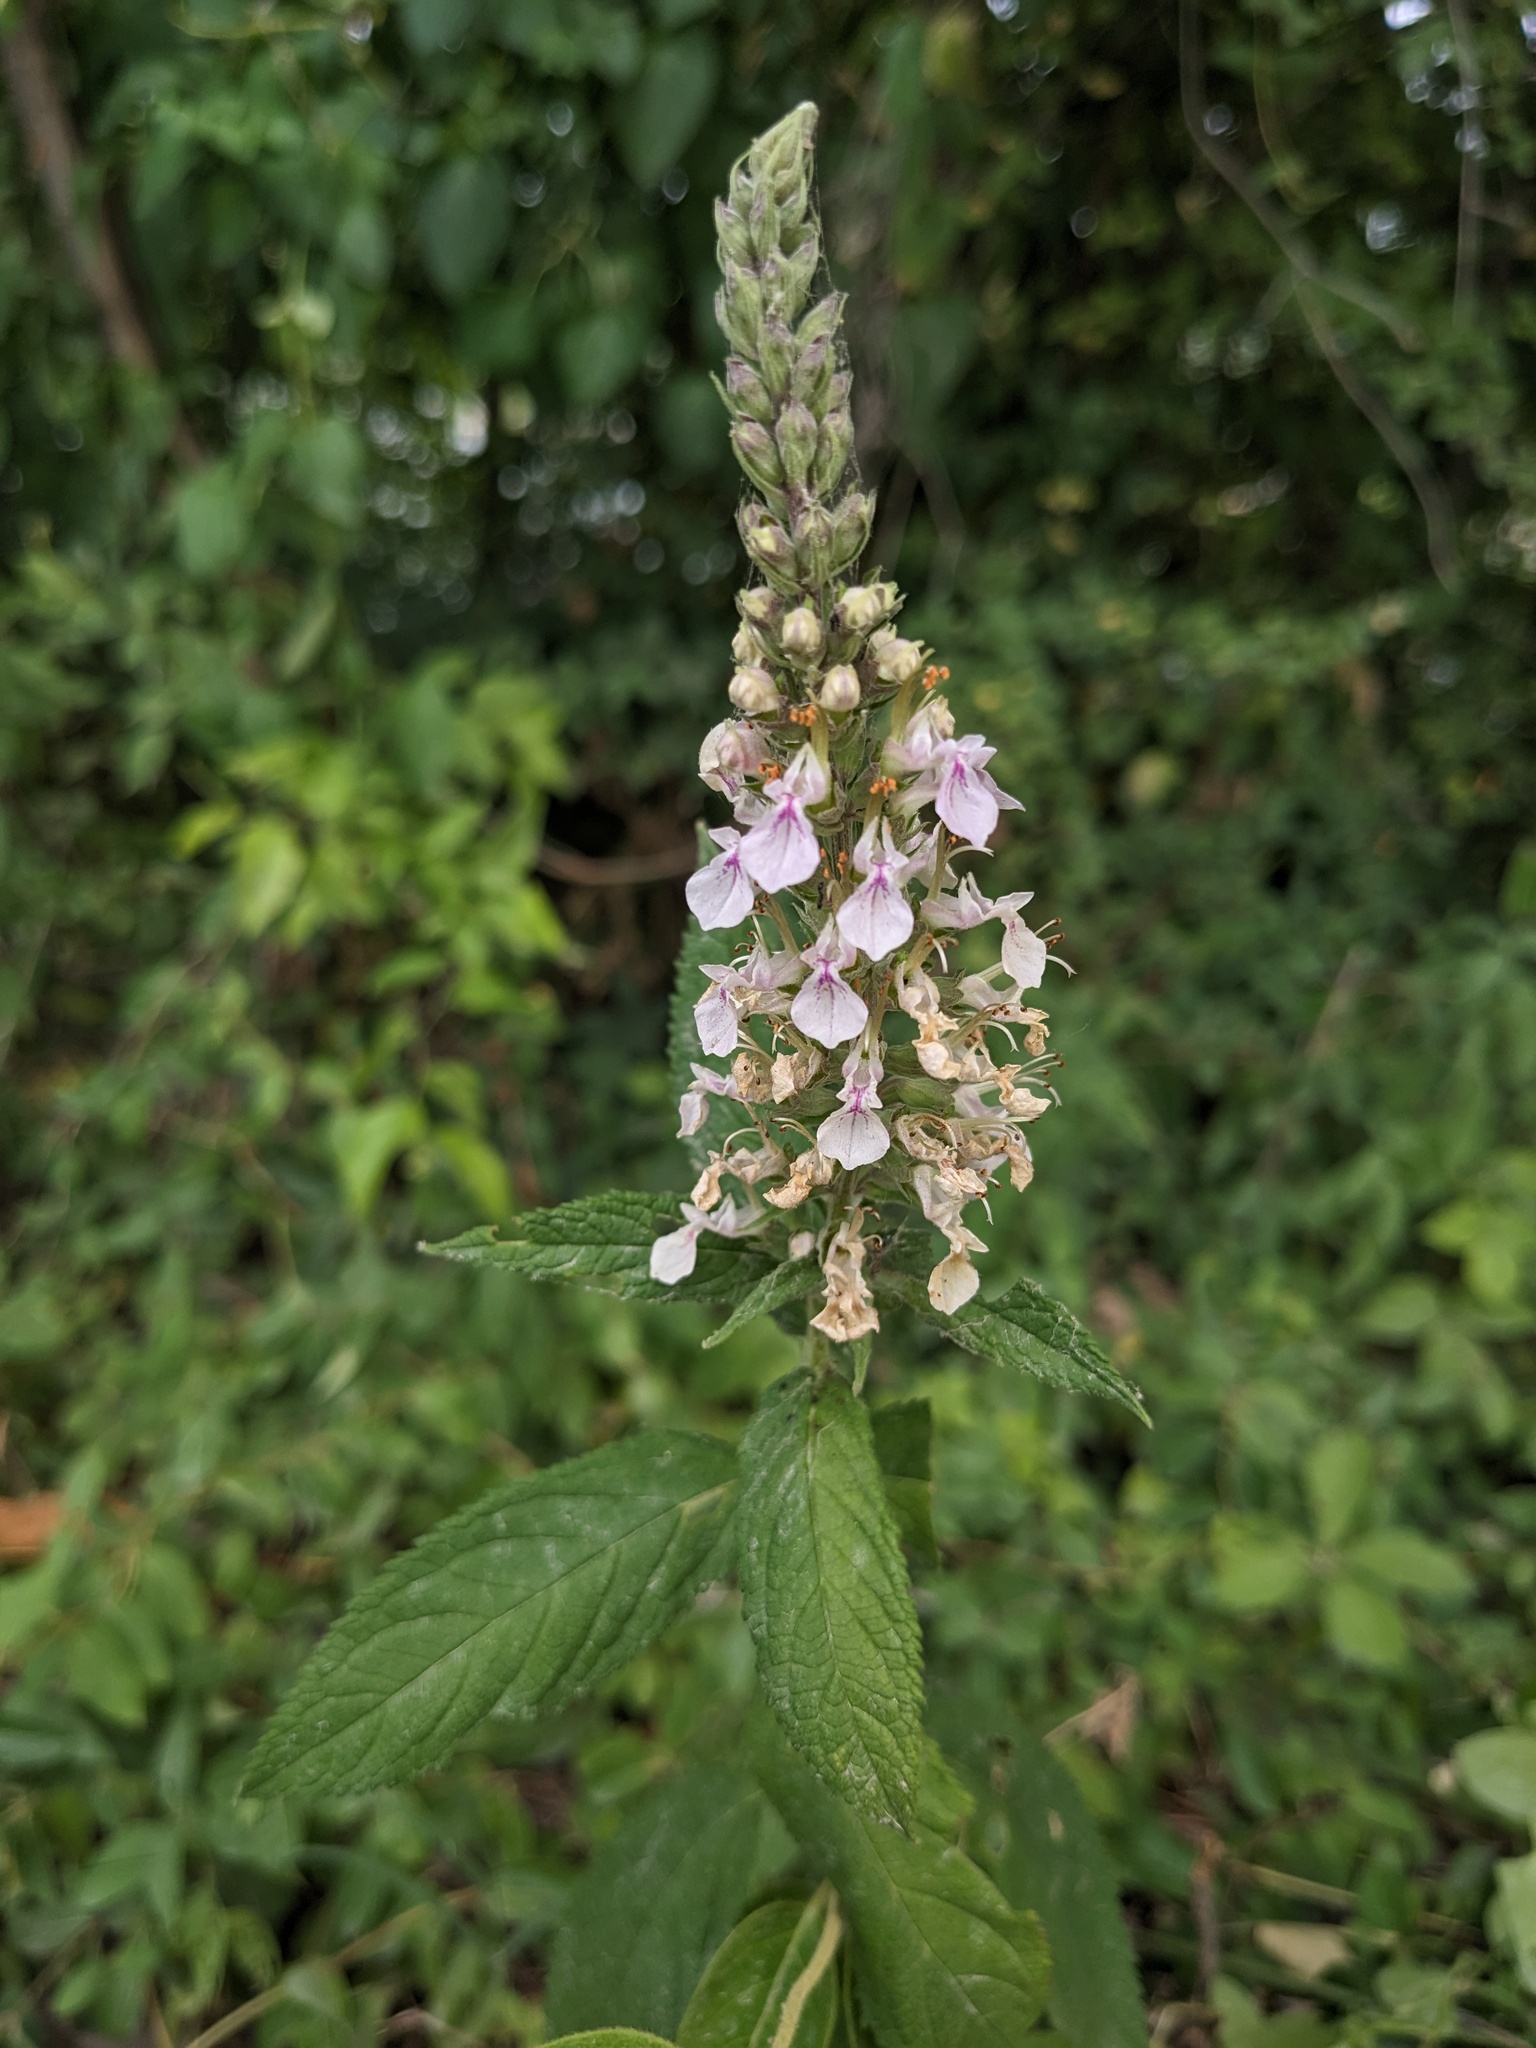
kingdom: Plantae
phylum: Tracheophyta
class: Magnoliopsida
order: Lamiales
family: Lamiaceae
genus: Teucrium
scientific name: Teucrium canadense
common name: American germander
